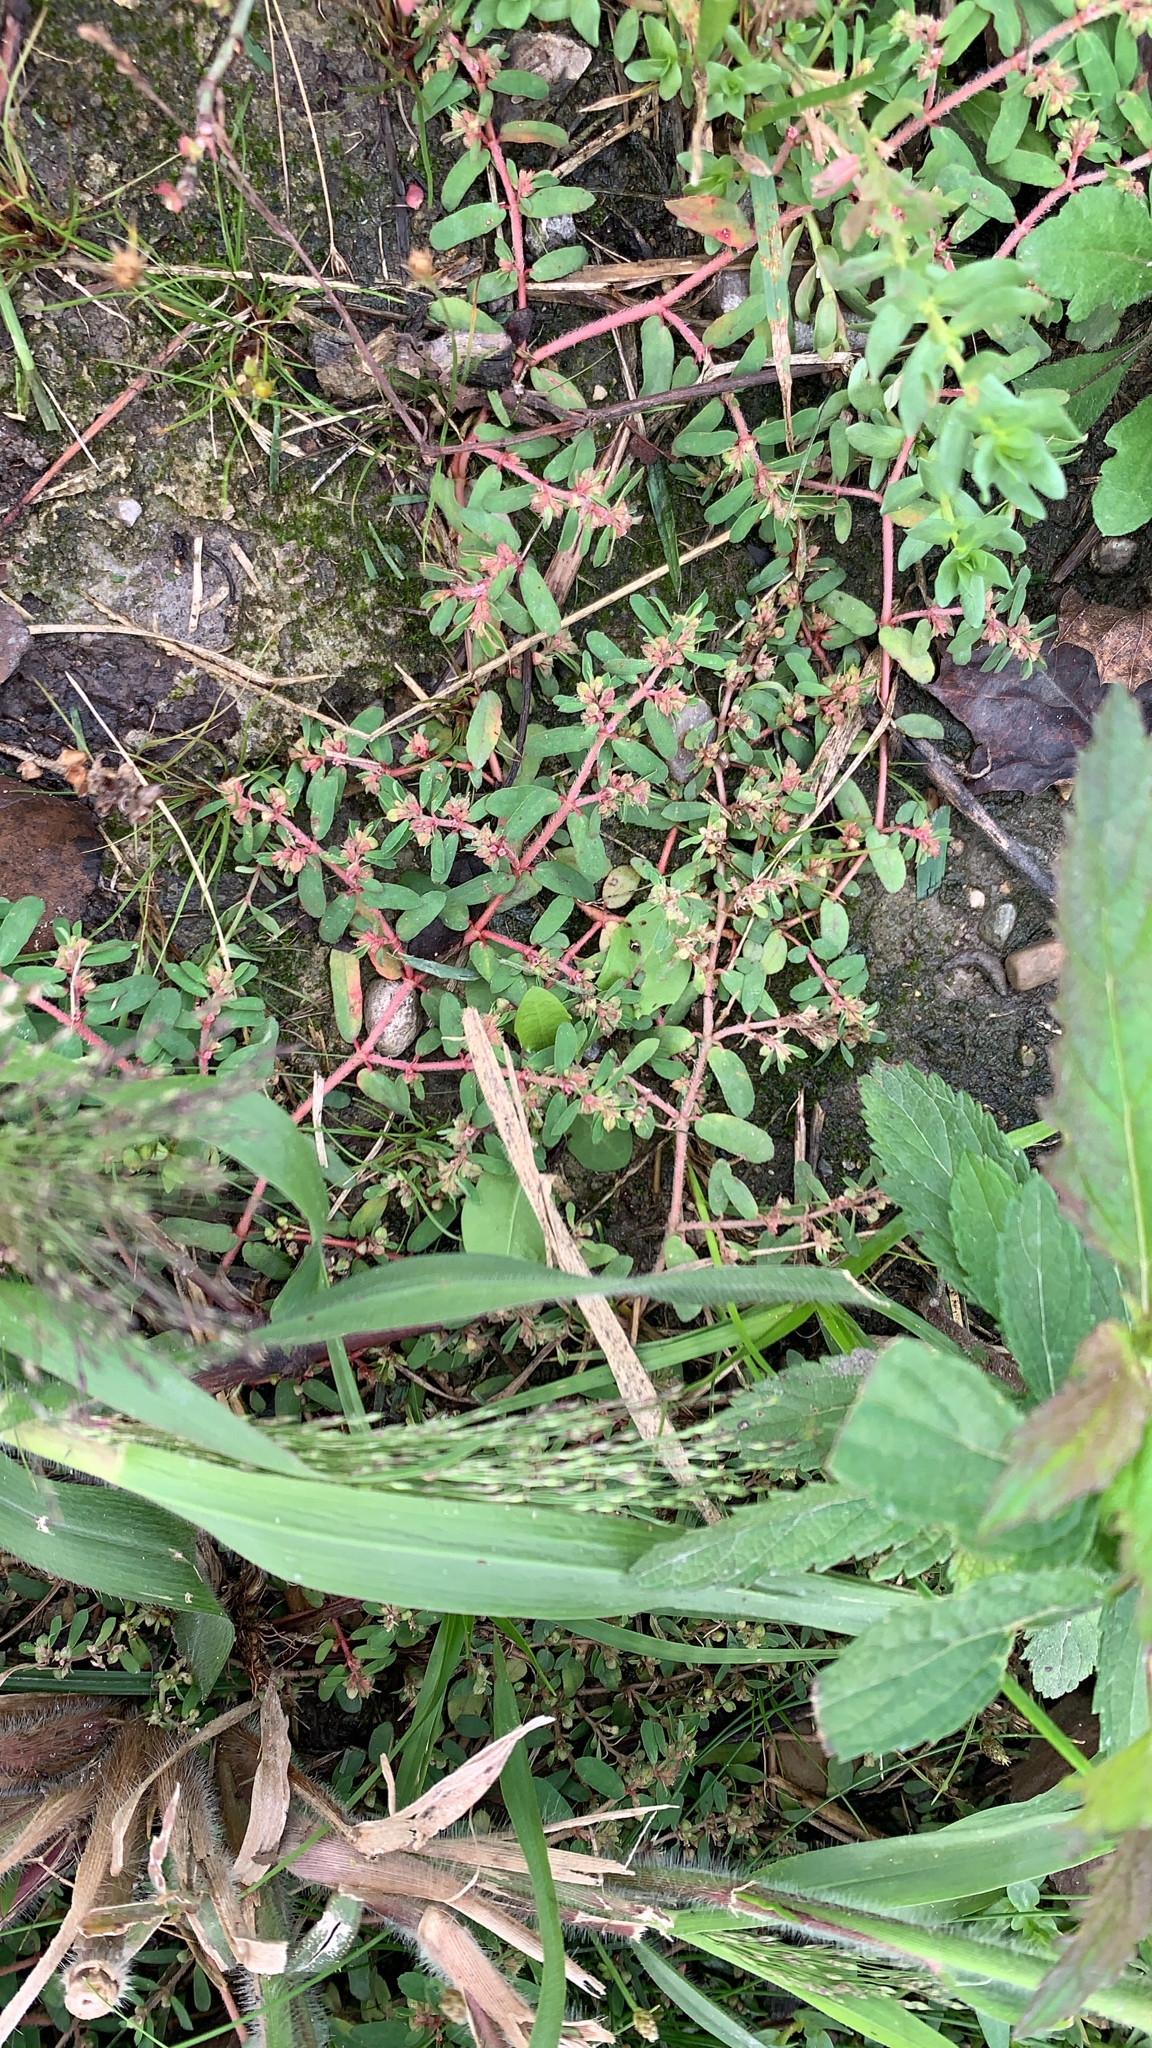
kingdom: Plantae
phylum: Tracheophyta
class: Magnoliopsida
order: Malpighiales
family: Euphorbiaceae
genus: Euphorbia
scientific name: Euphorbia maculata
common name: Spotted spurge
